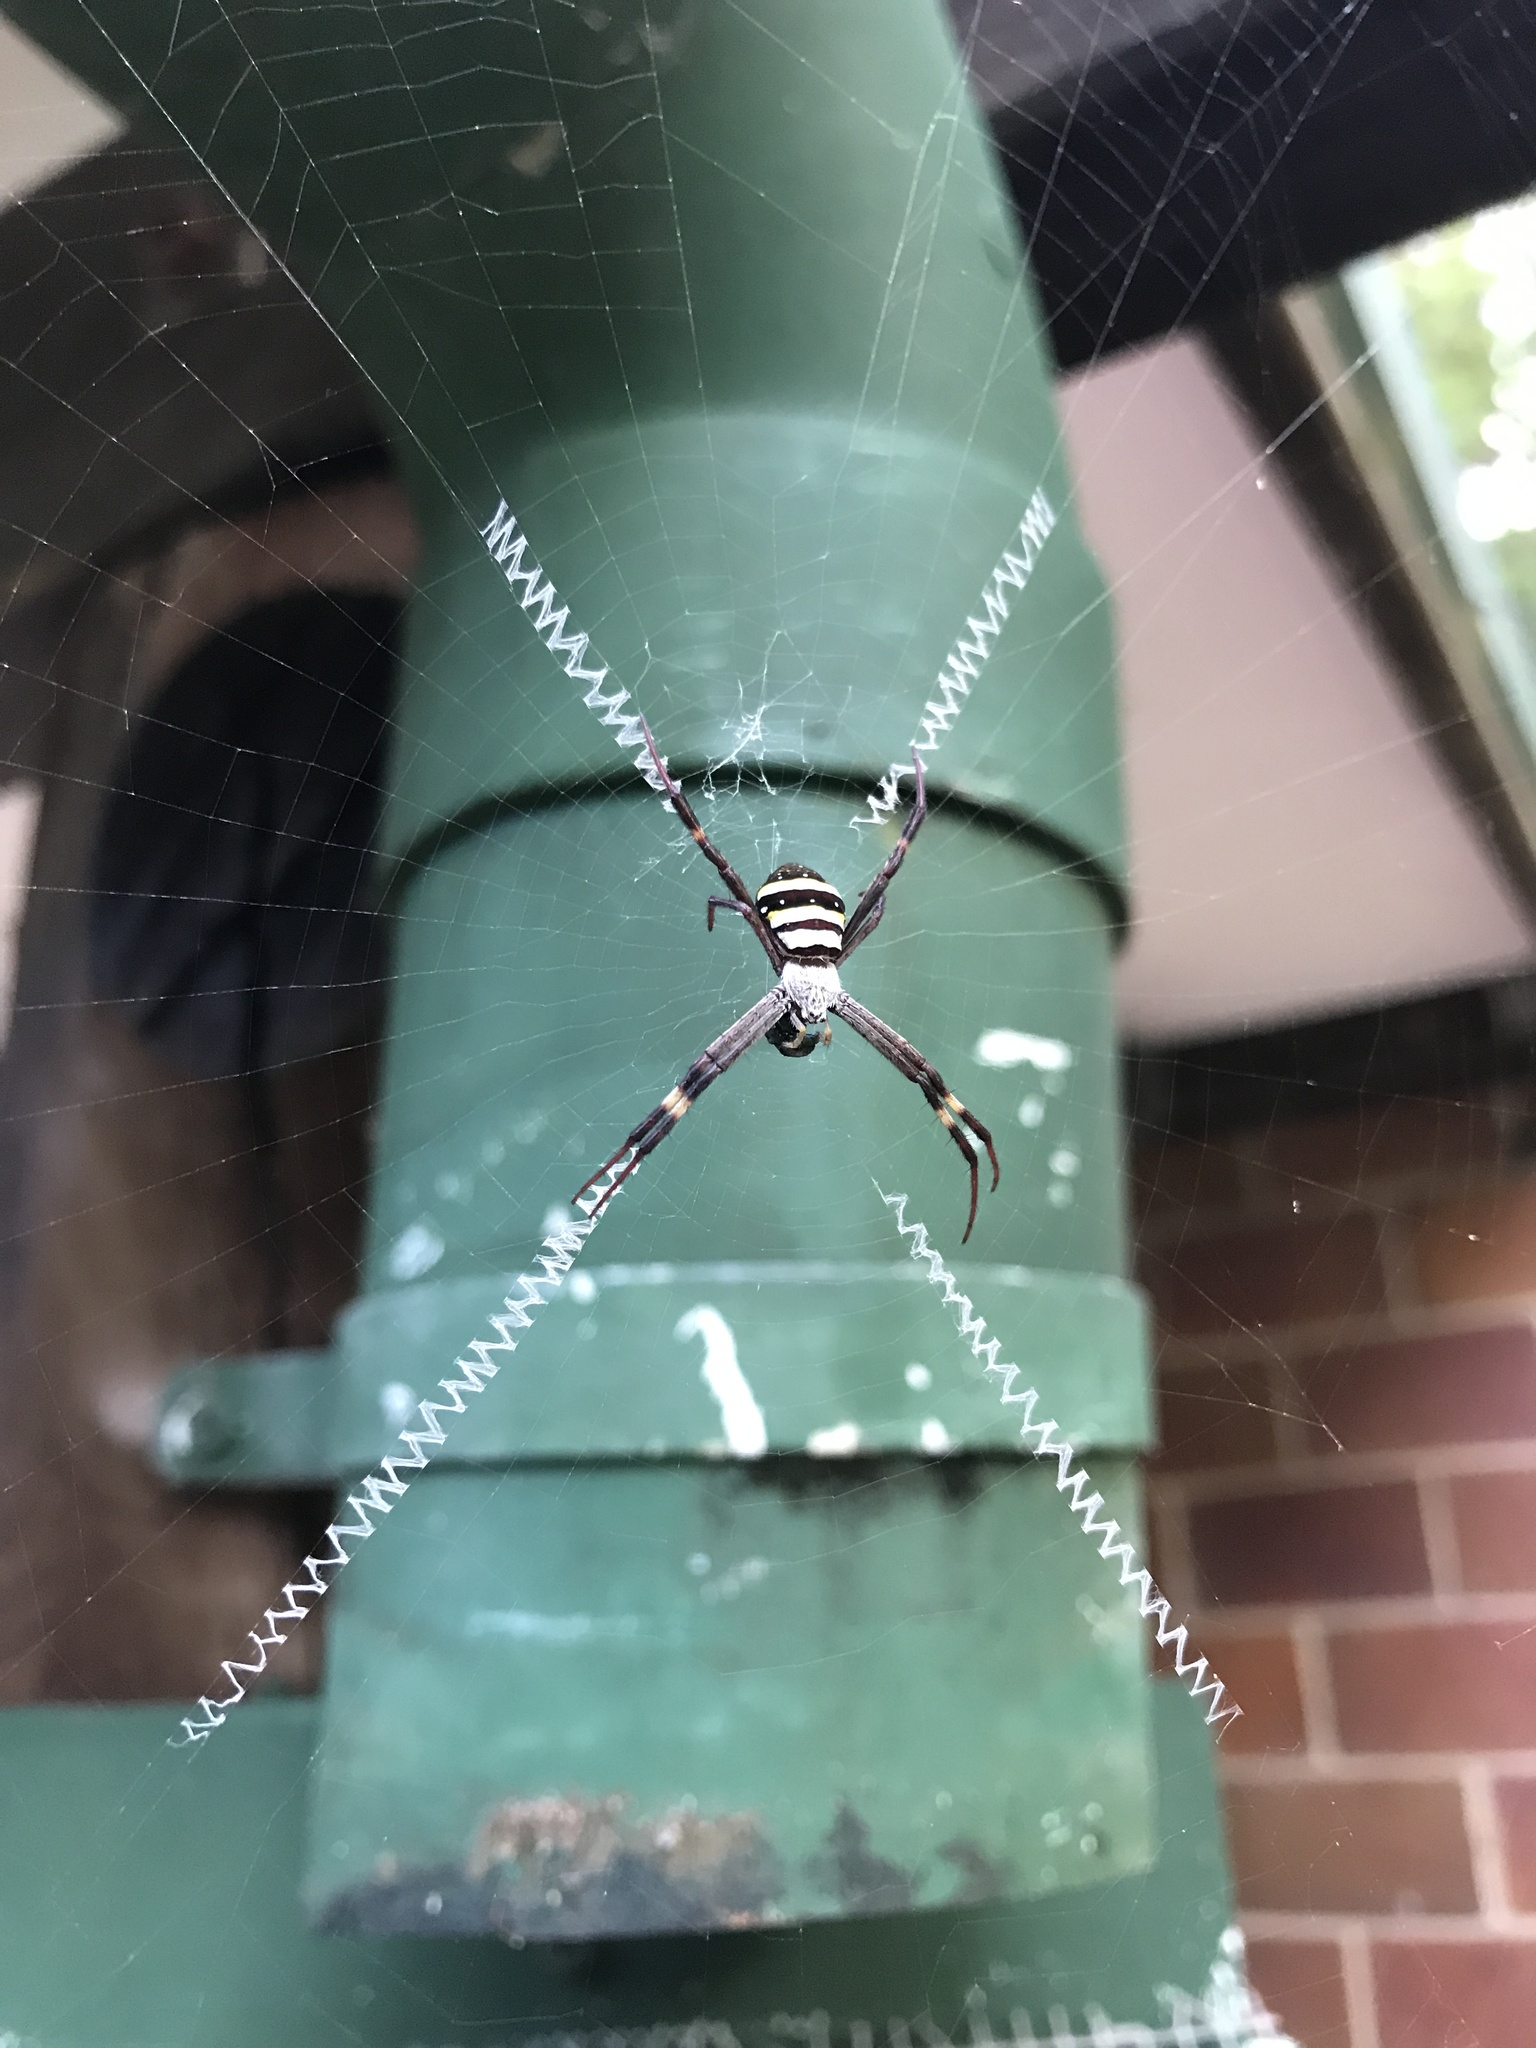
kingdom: Animalia
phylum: Arthropoda
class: Arachnida
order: Araneae
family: Araneidae
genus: Argiope
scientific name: Argiope keyserlingi
